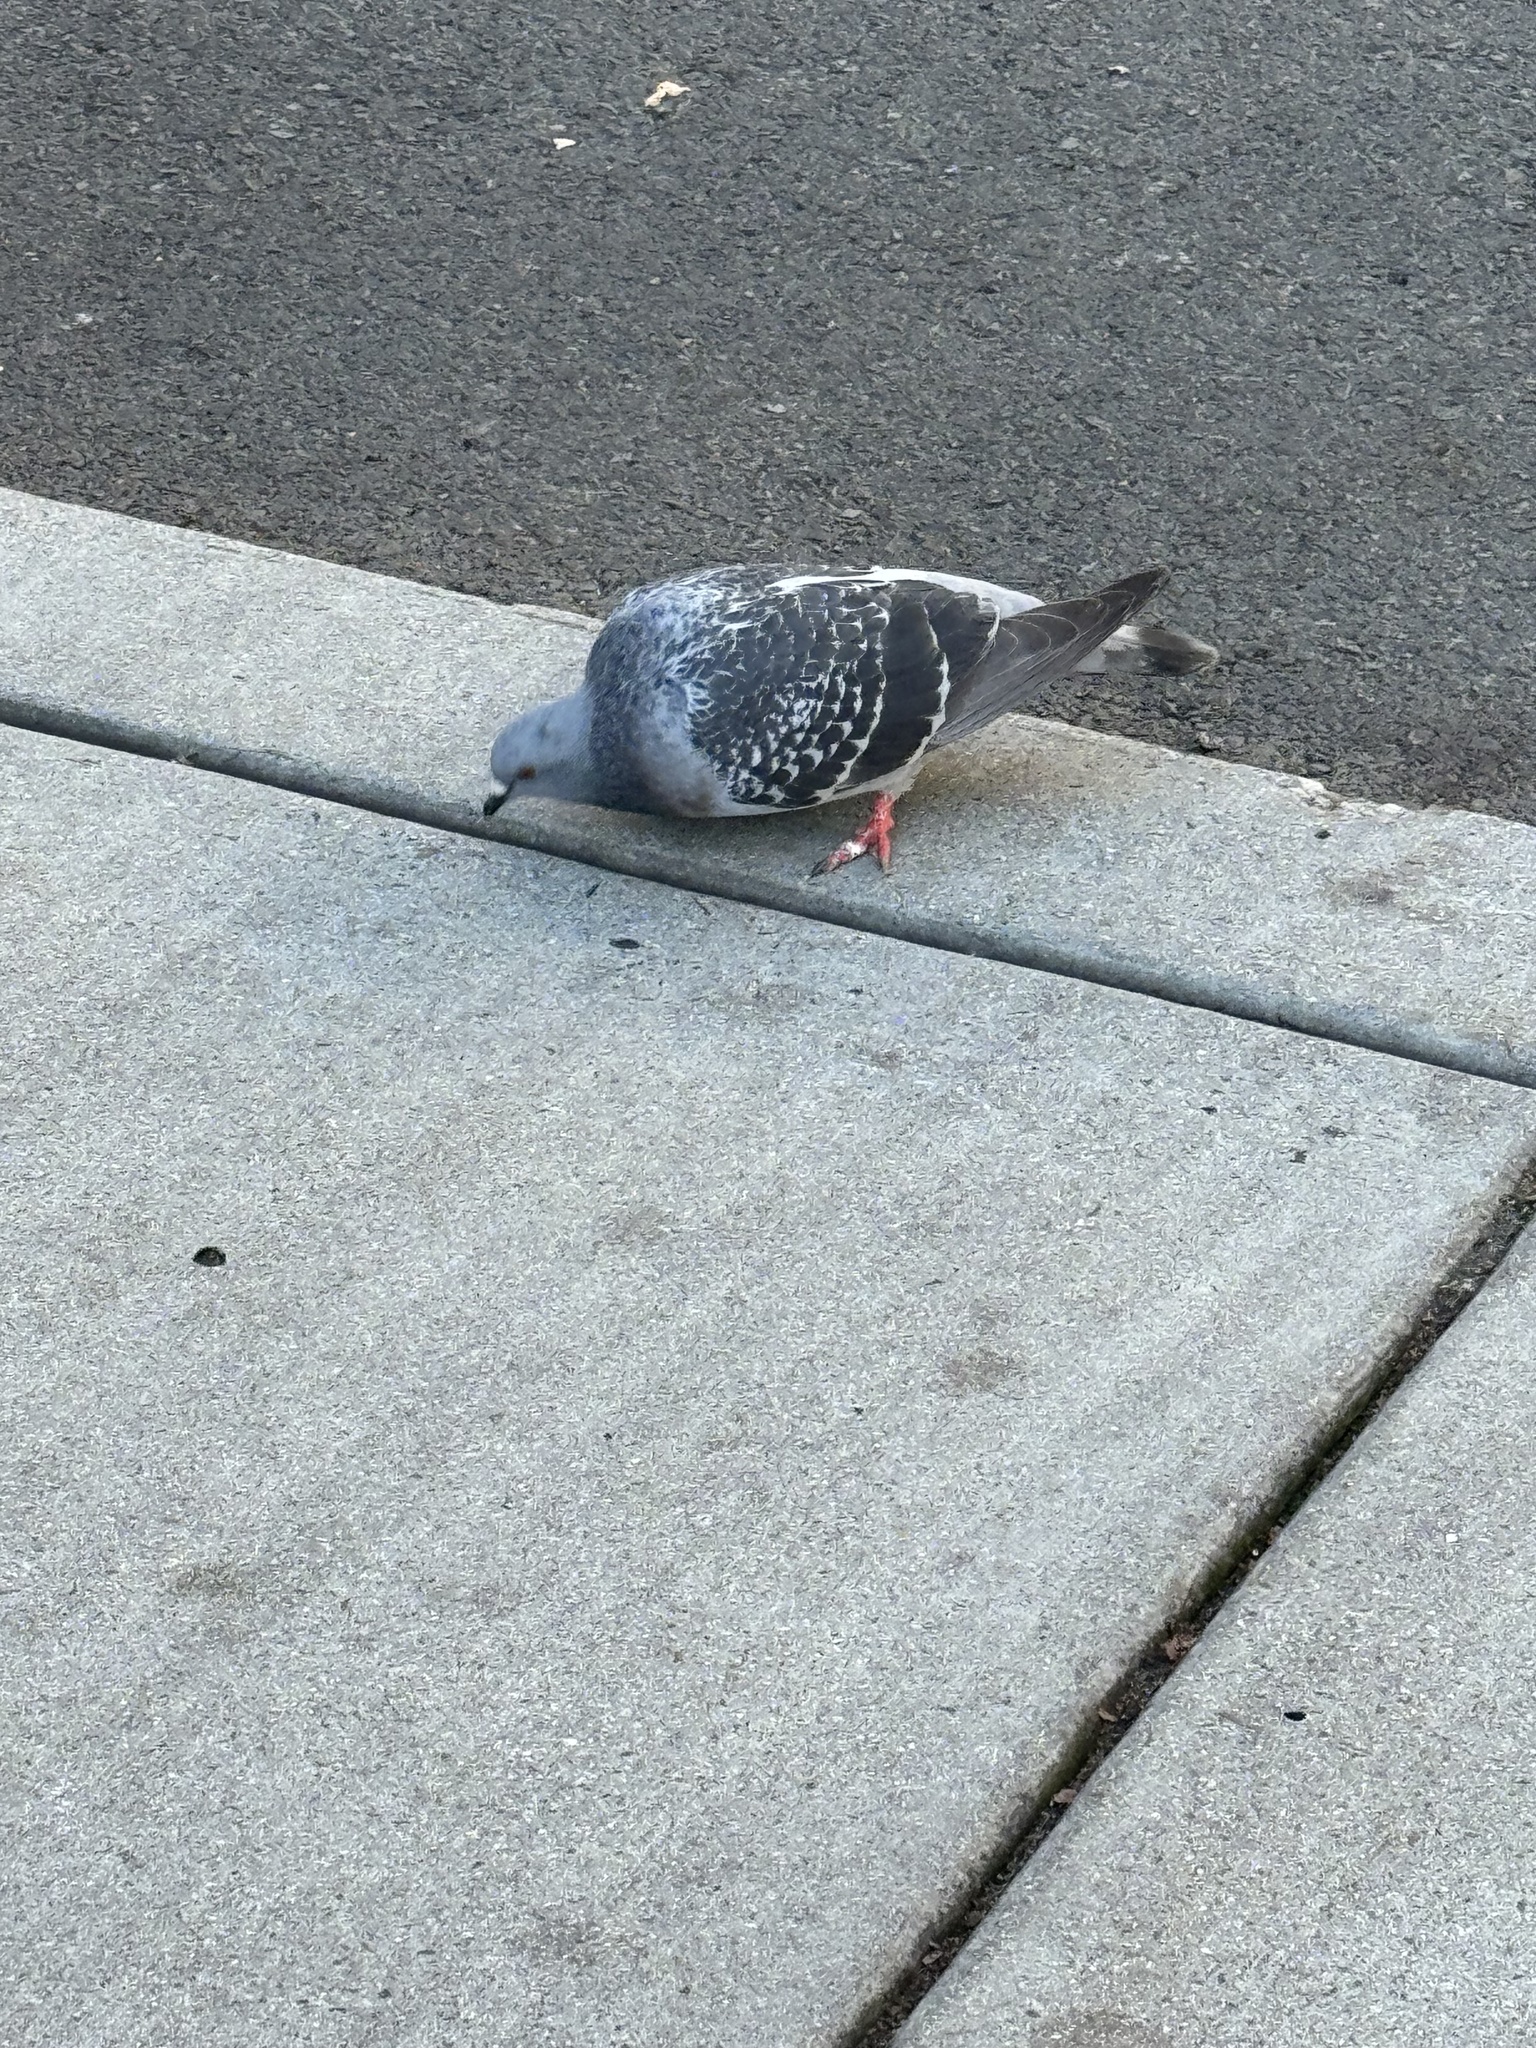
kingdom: Animalia
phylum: Chordata
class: Aves
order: Columbiformes
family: Columbidae
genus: Columba
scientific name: Columba livia
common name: Rock pigeon
